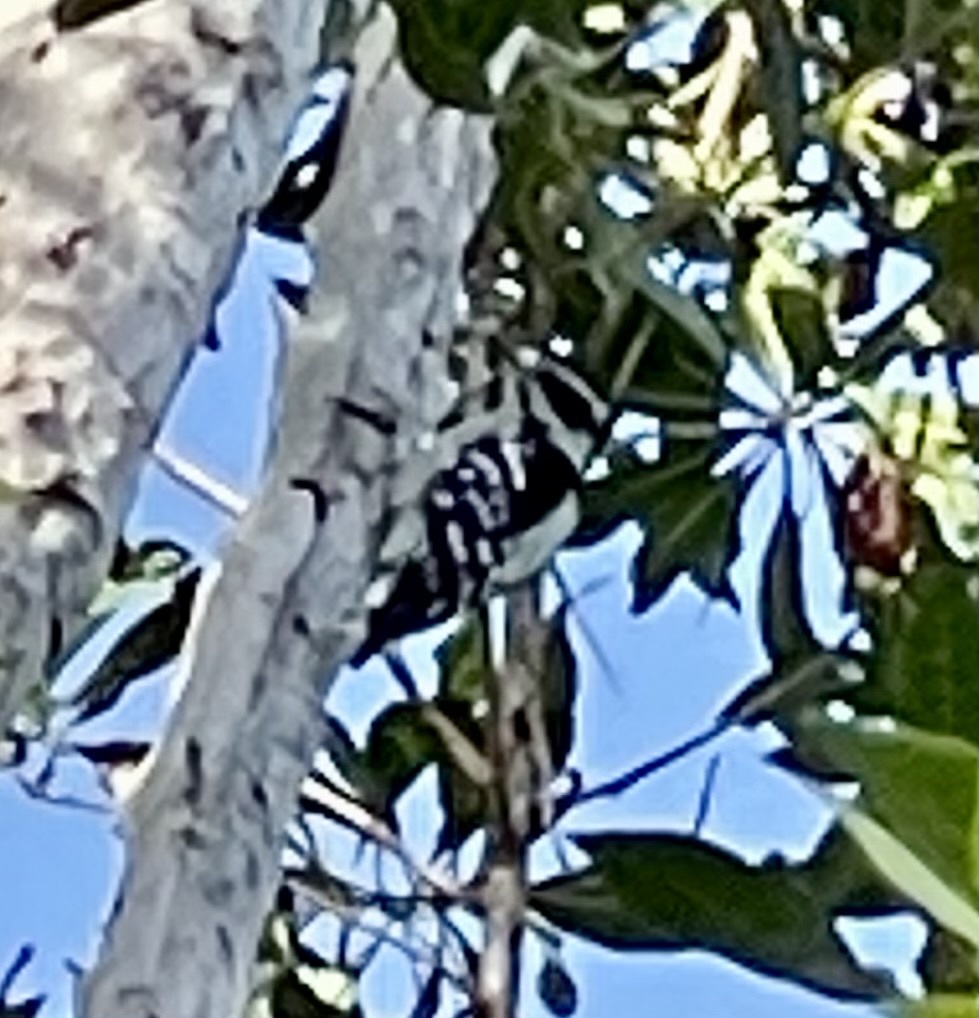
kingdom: Animalia
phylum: Chordata
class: Aves
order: Piciformes
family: Picidae
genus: Dryobates
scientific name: Dryobates pubescens
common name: Downy woodpecker
